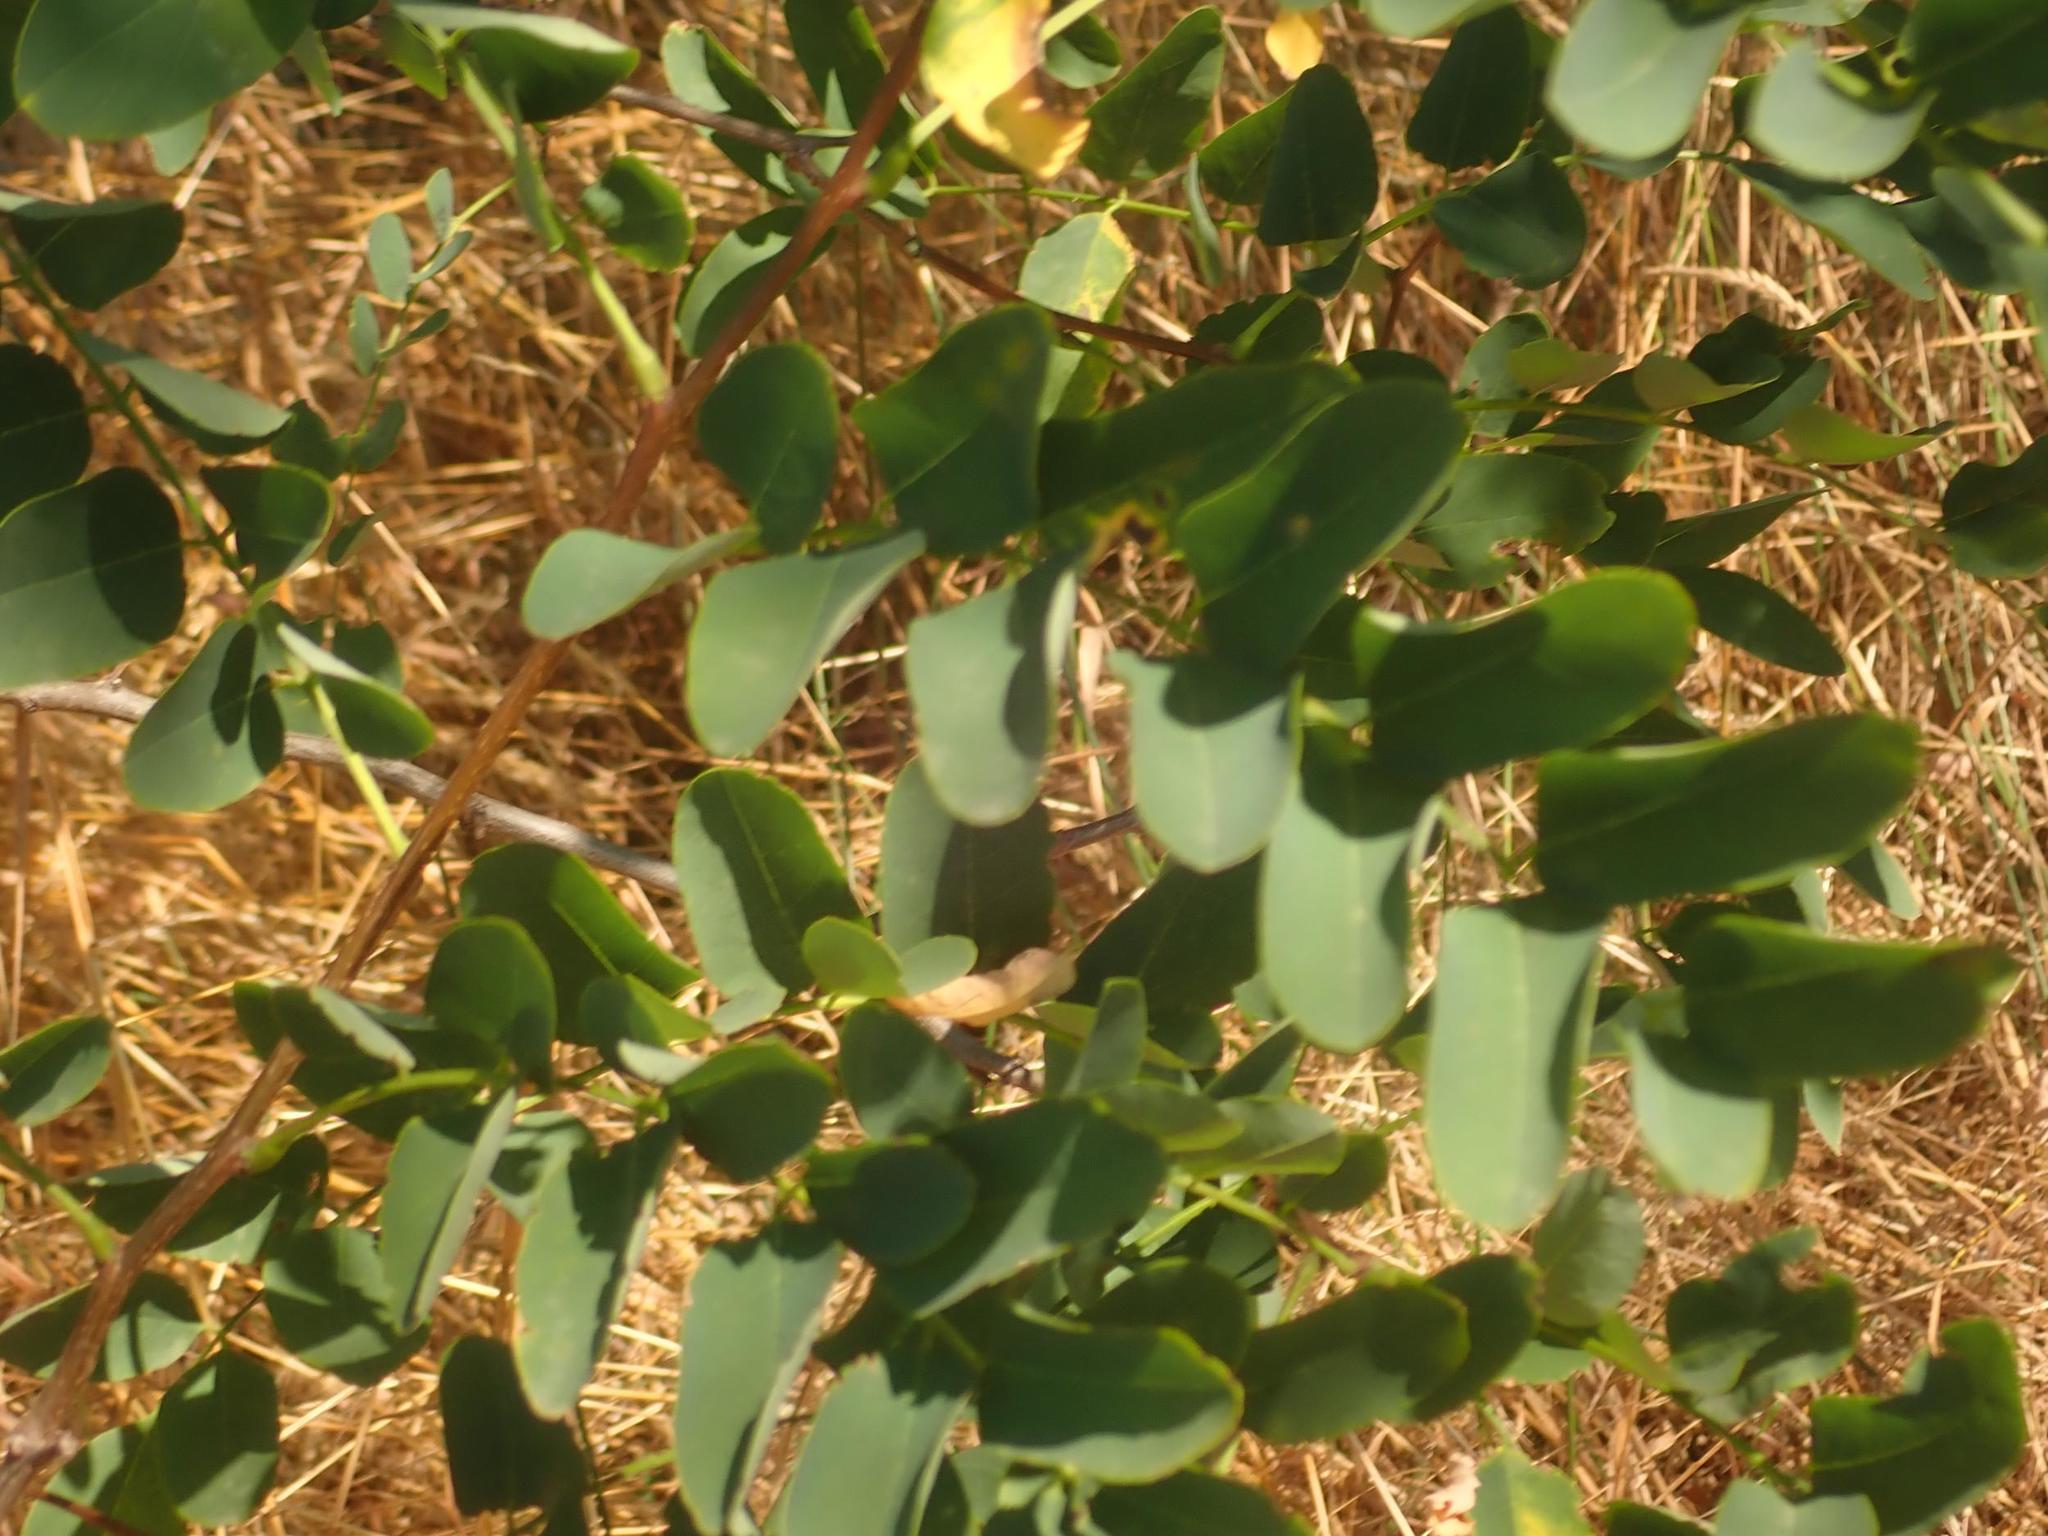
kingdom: Plantae
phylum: Tracheophyta
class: Magnoliopsida
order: Fabales
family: Fabaceae
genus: Robinia
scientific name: Robinia pseudoacacia
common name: Black locust
